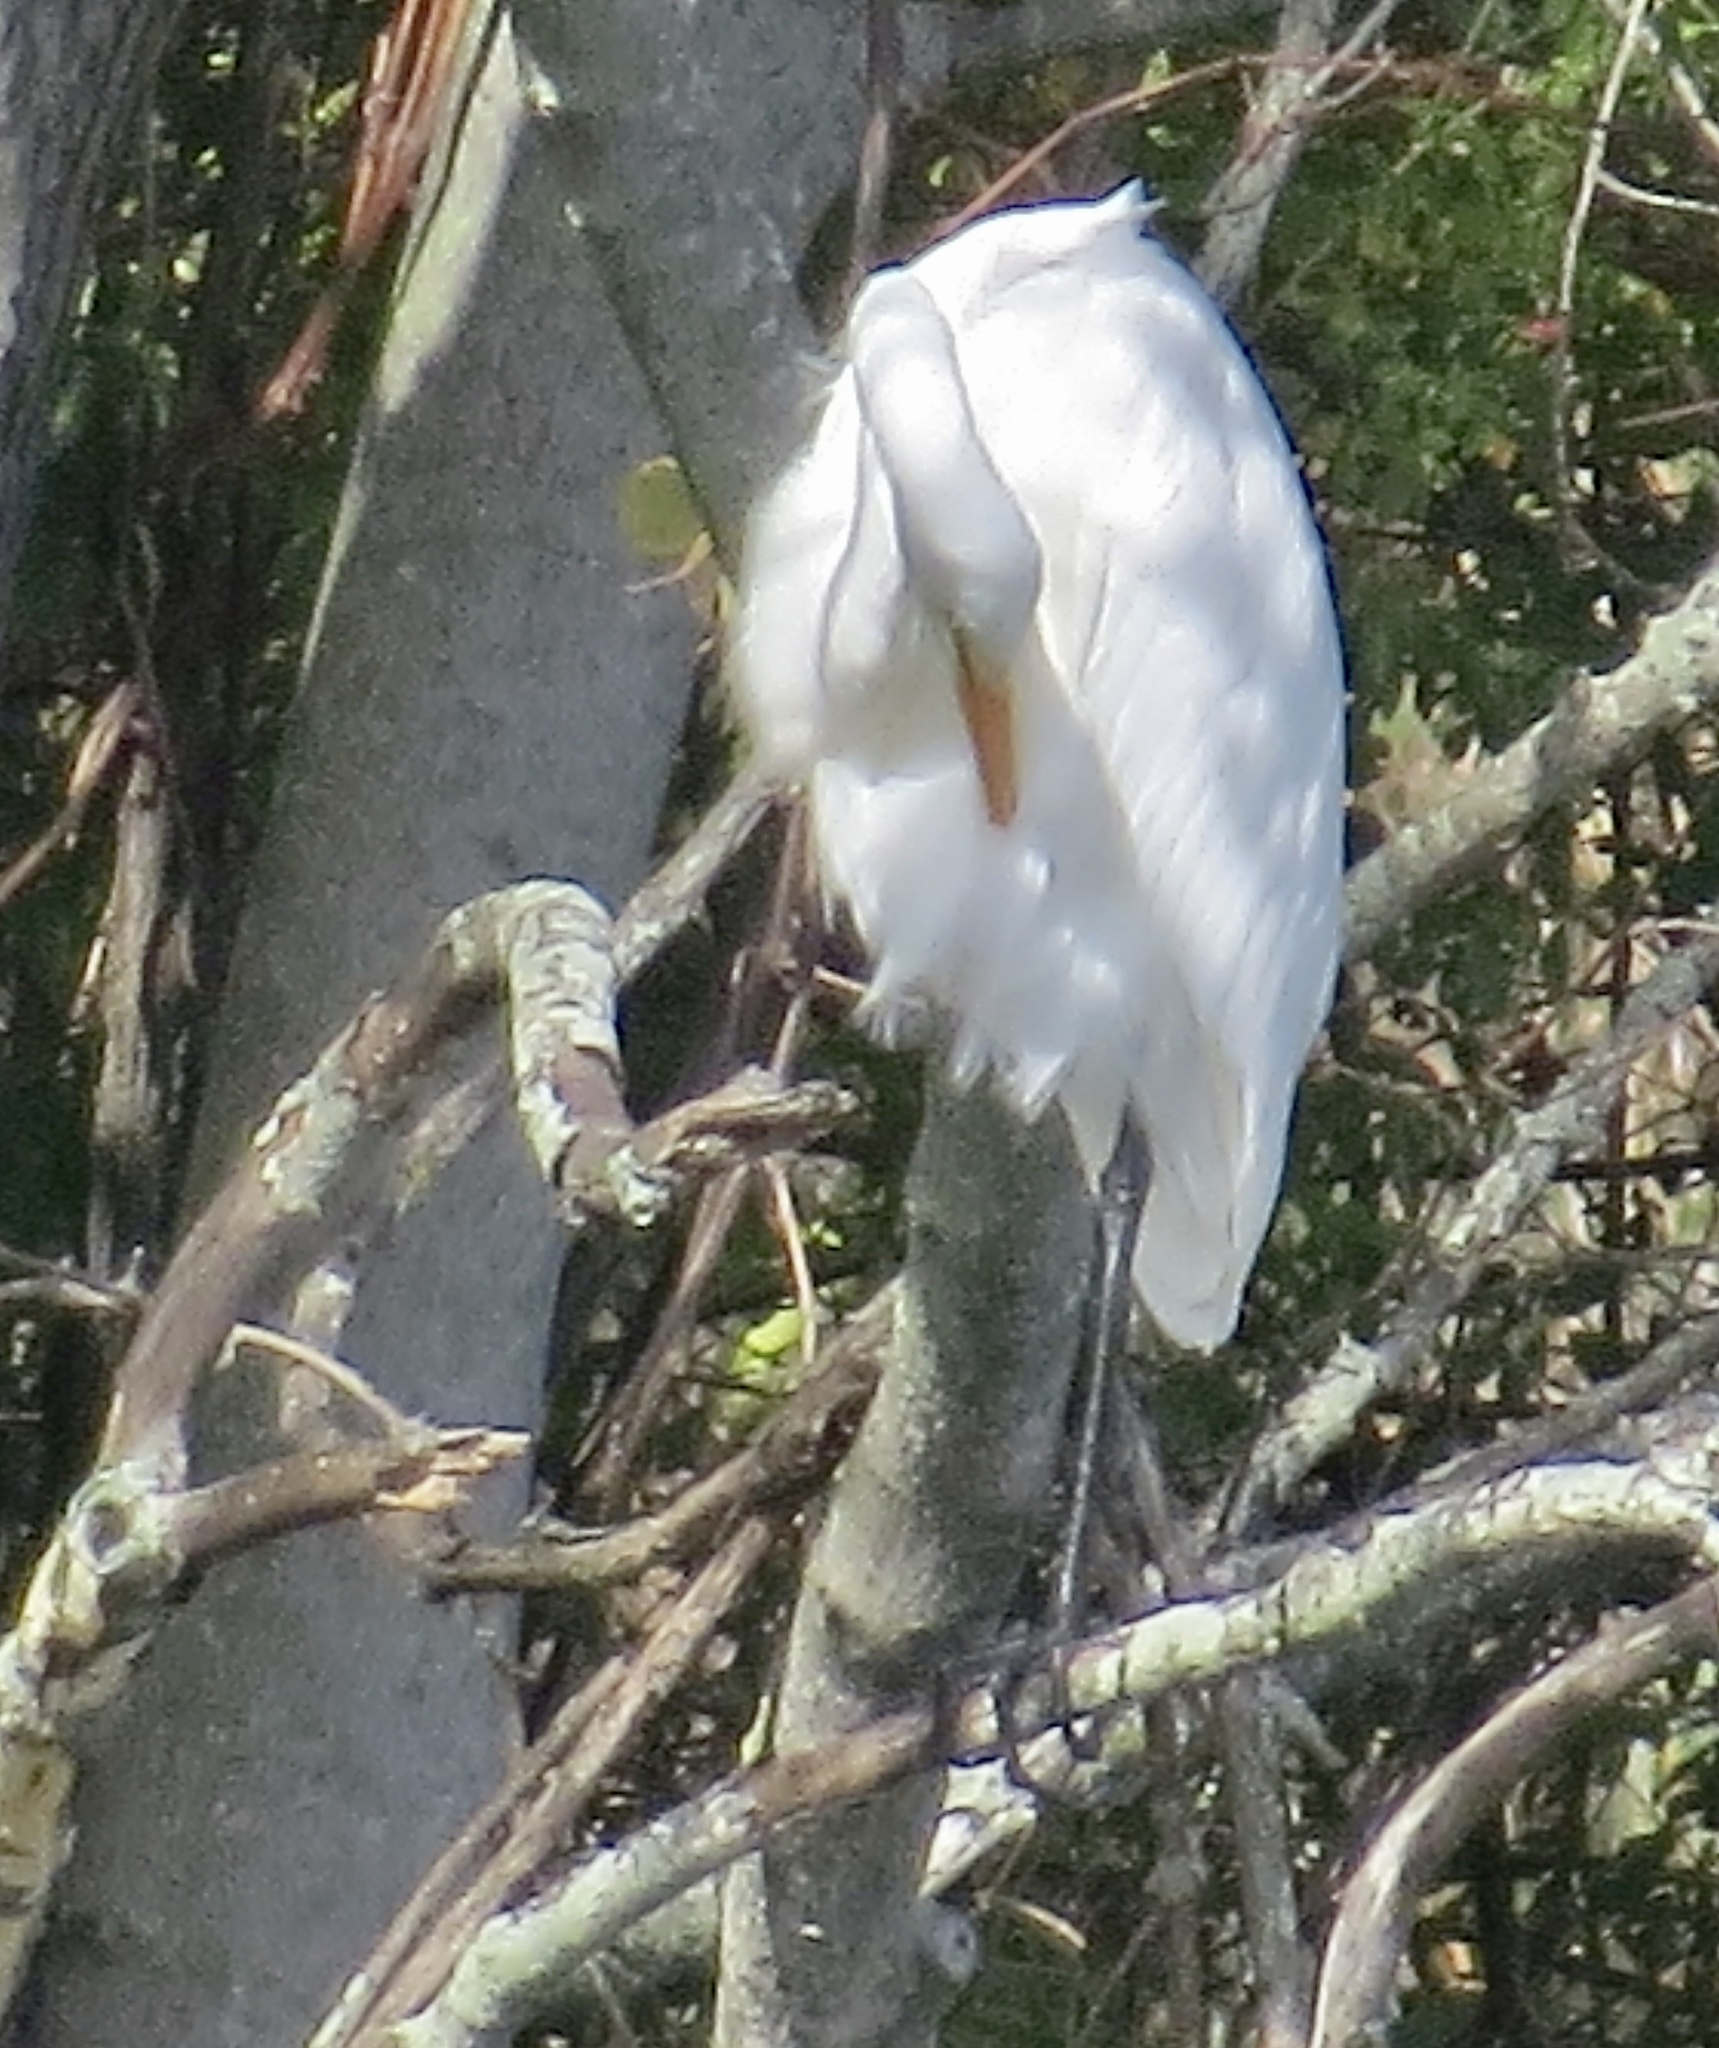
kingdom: Animalia
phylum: Chordata
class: Aves
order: Pelecaniformes
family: Ardeidae
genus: Ardea
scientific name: Ardea alba
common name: Great egret
